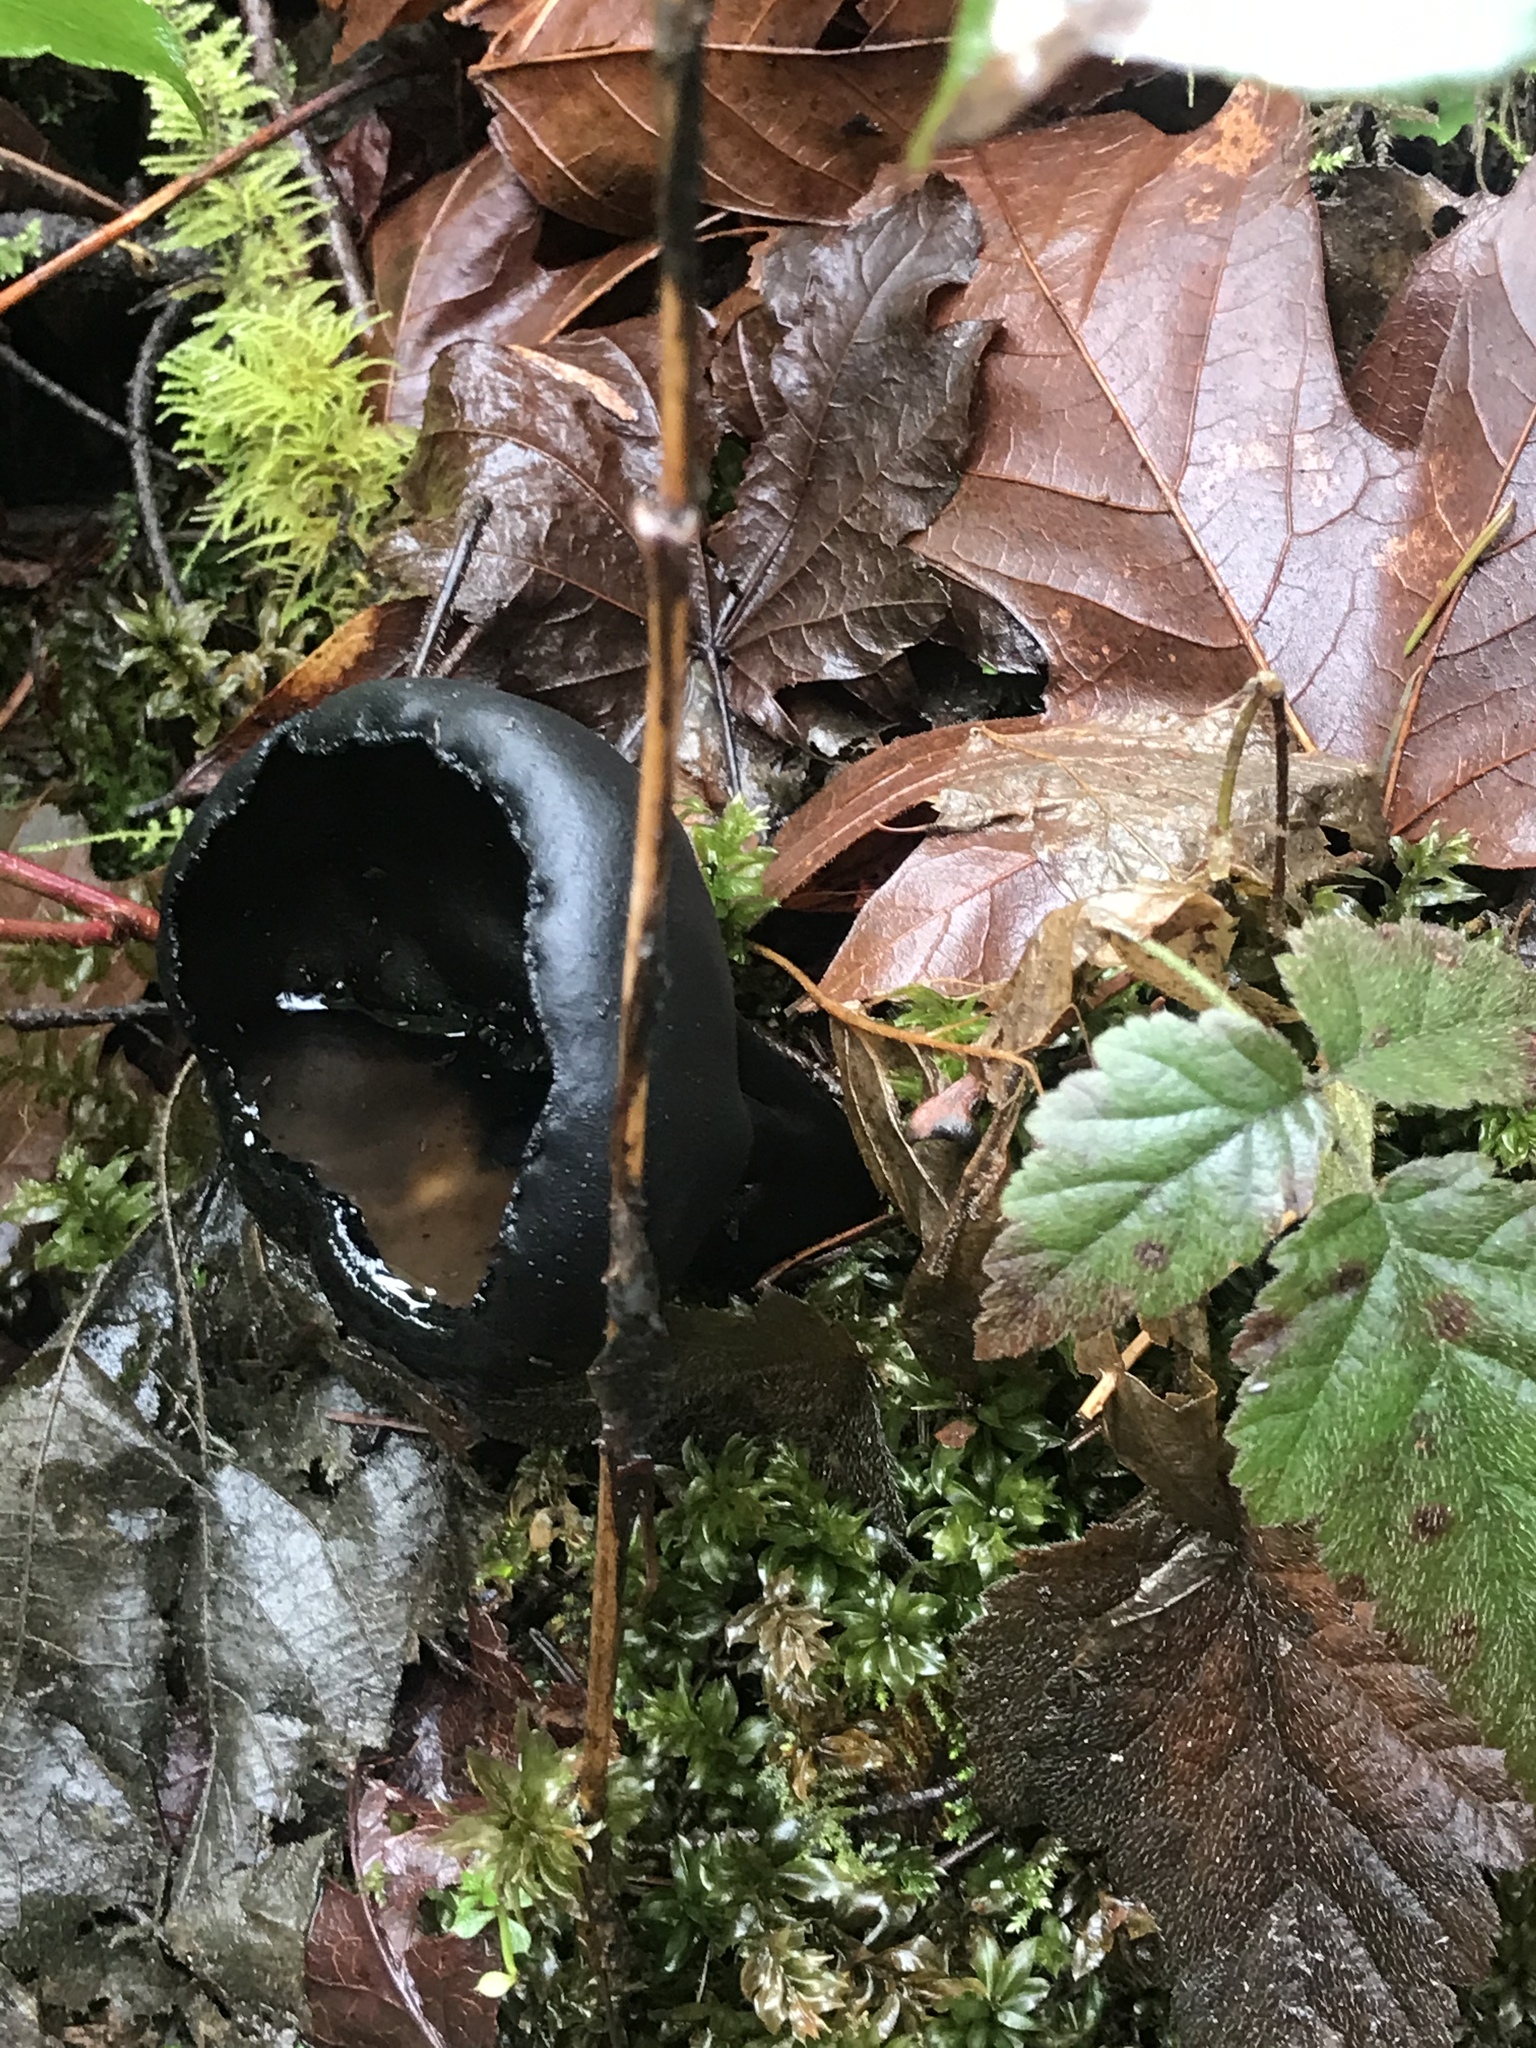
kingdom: Fungi
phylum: Ascomycota
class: Pezizomycetes
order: Pezizales
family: Sarcosomataceae
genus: Urnula
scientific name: Urnula padeniana
